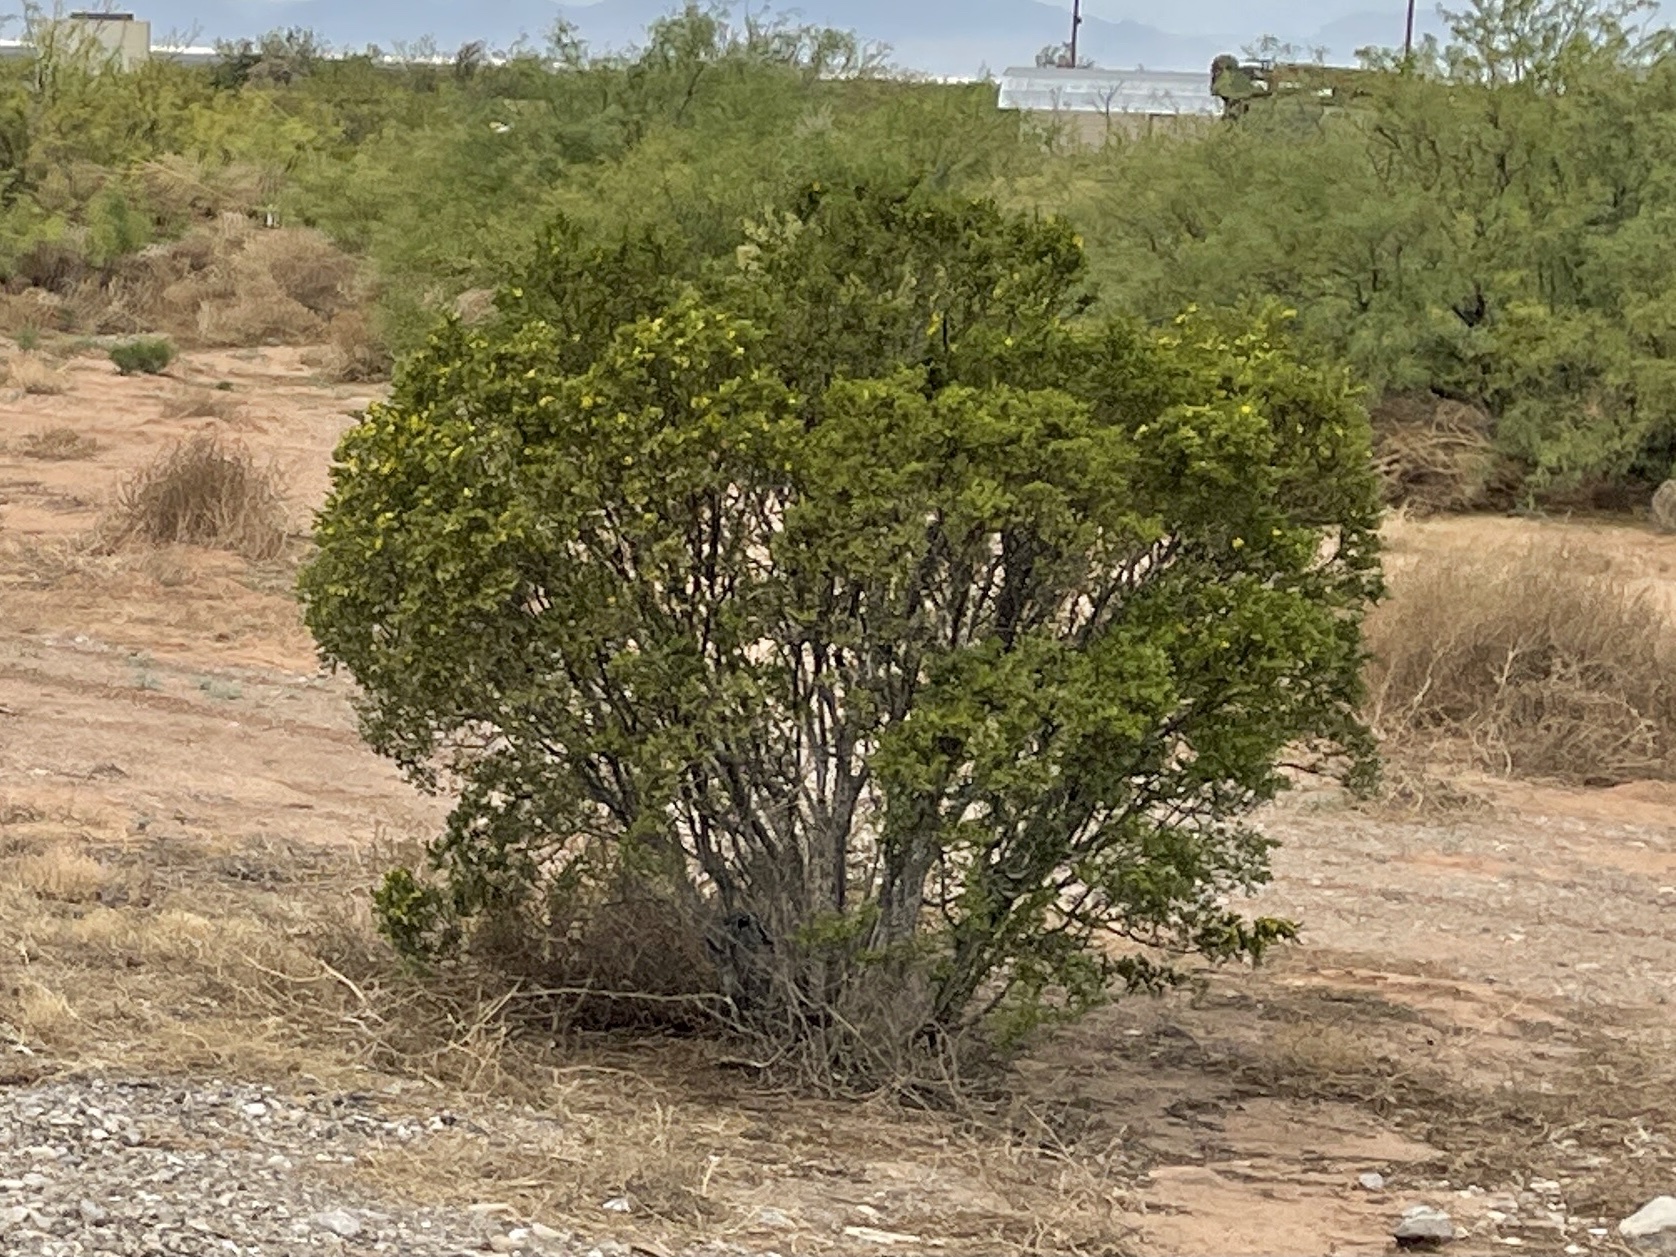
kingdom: Plantae
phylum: Tracheophyta
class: Magnoliopsida
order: Zygophyllales
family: Zygophyllaceae
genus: Larrea
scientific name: Larrea tridentata
